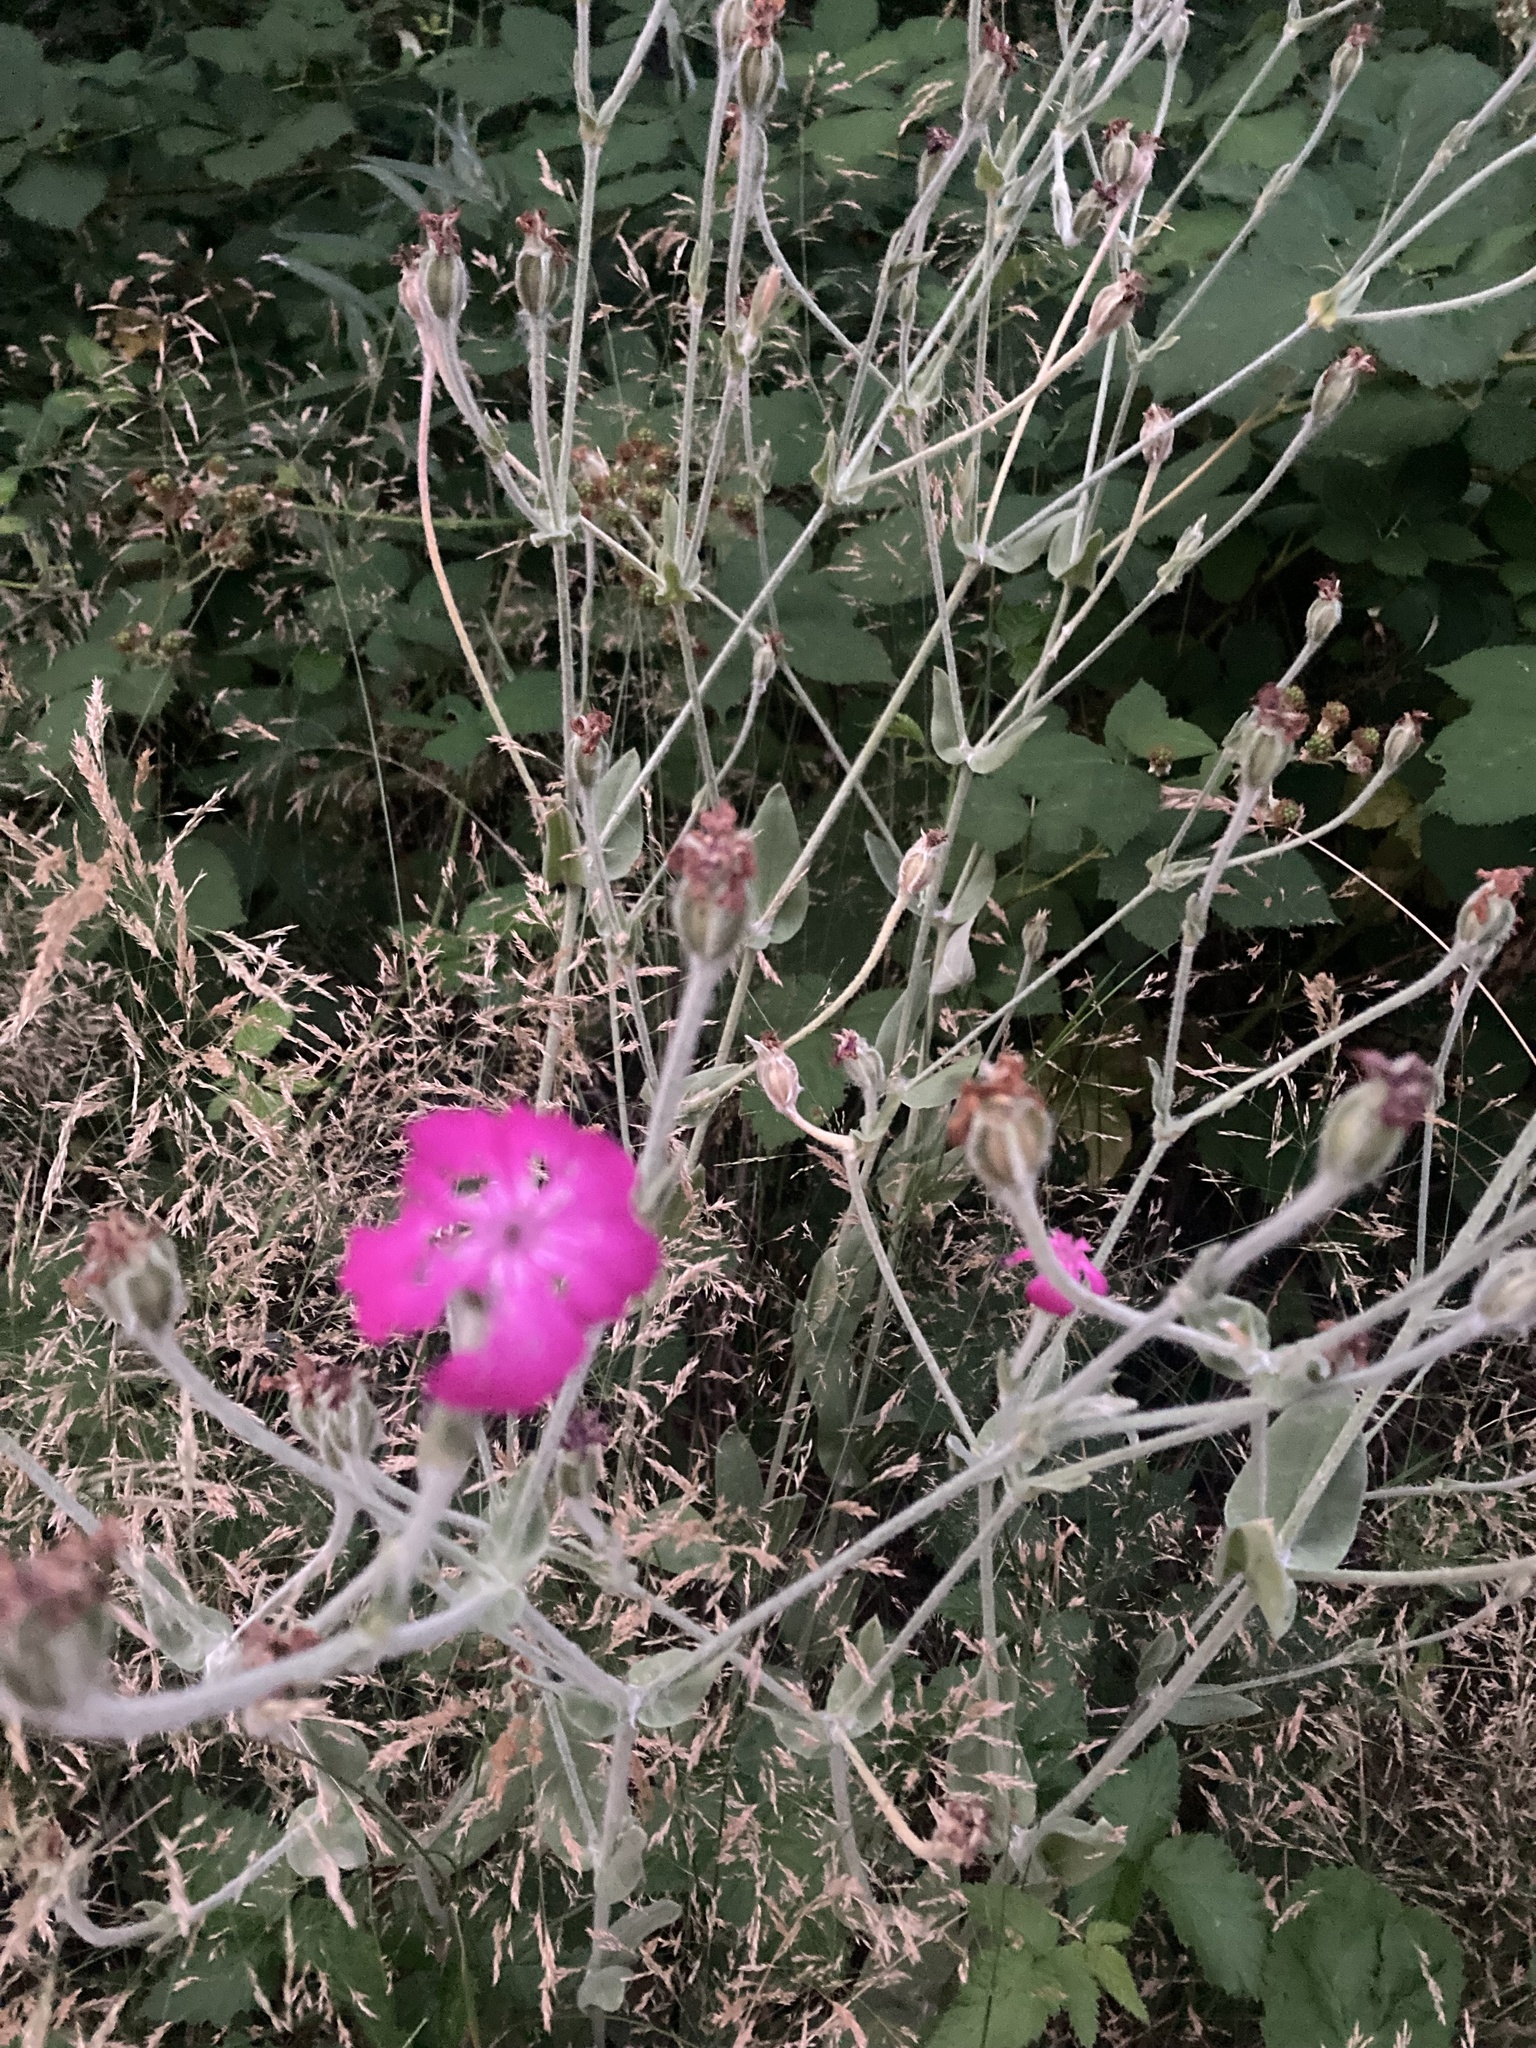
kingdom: Plantae
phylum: Tracheophyta
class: Magnoliopsida
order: Caryophyllales
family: Caryophyllaceae
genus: Silene
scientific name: Silene coronaria
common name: Rose campion
